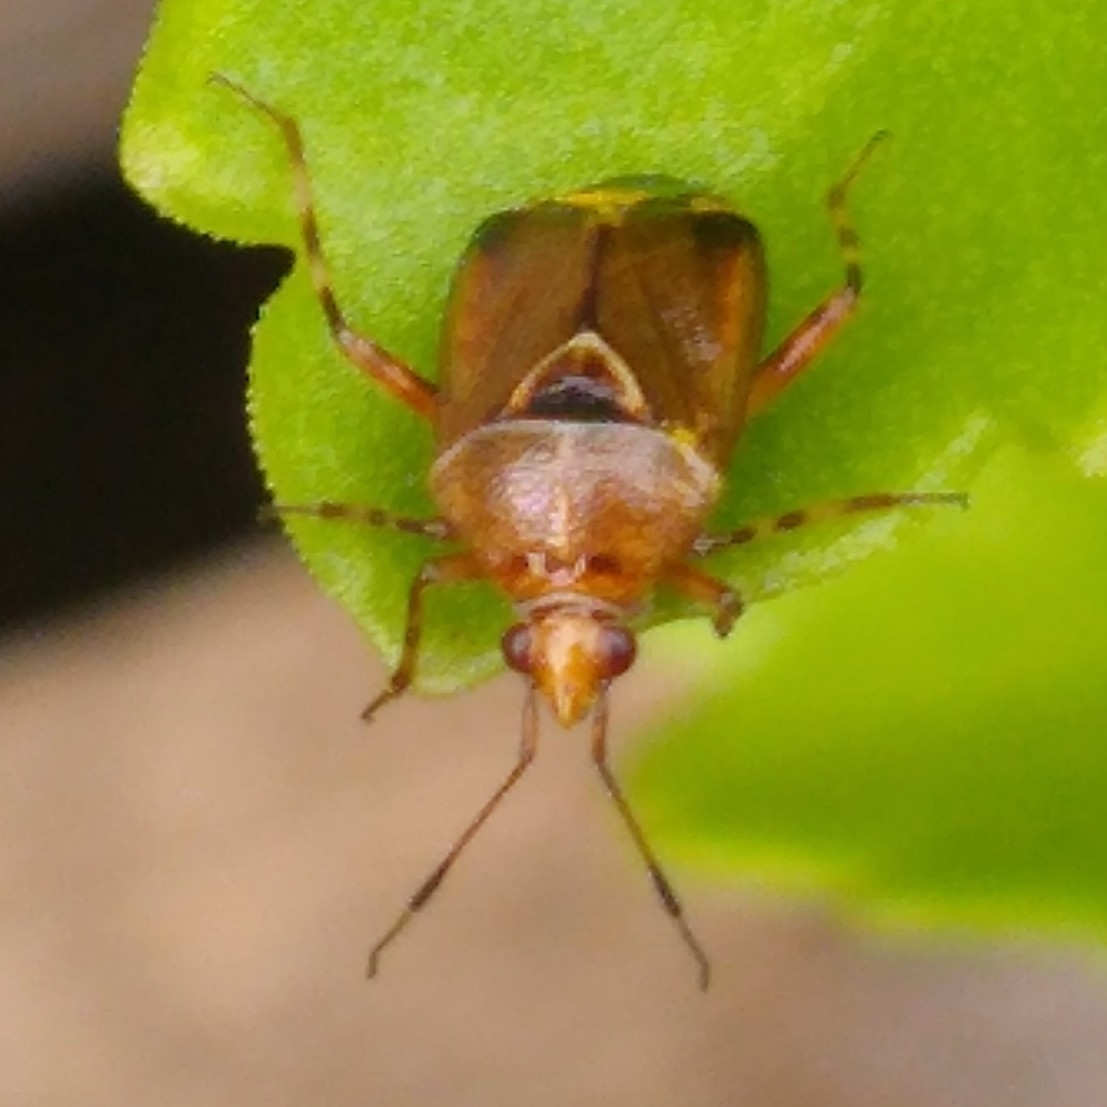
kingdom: Animalia
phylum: Arthropoda
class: Insecta
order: Hemiptera
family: Miridae
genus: Deraeocoris
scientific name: Deraeocoris flavilinea
